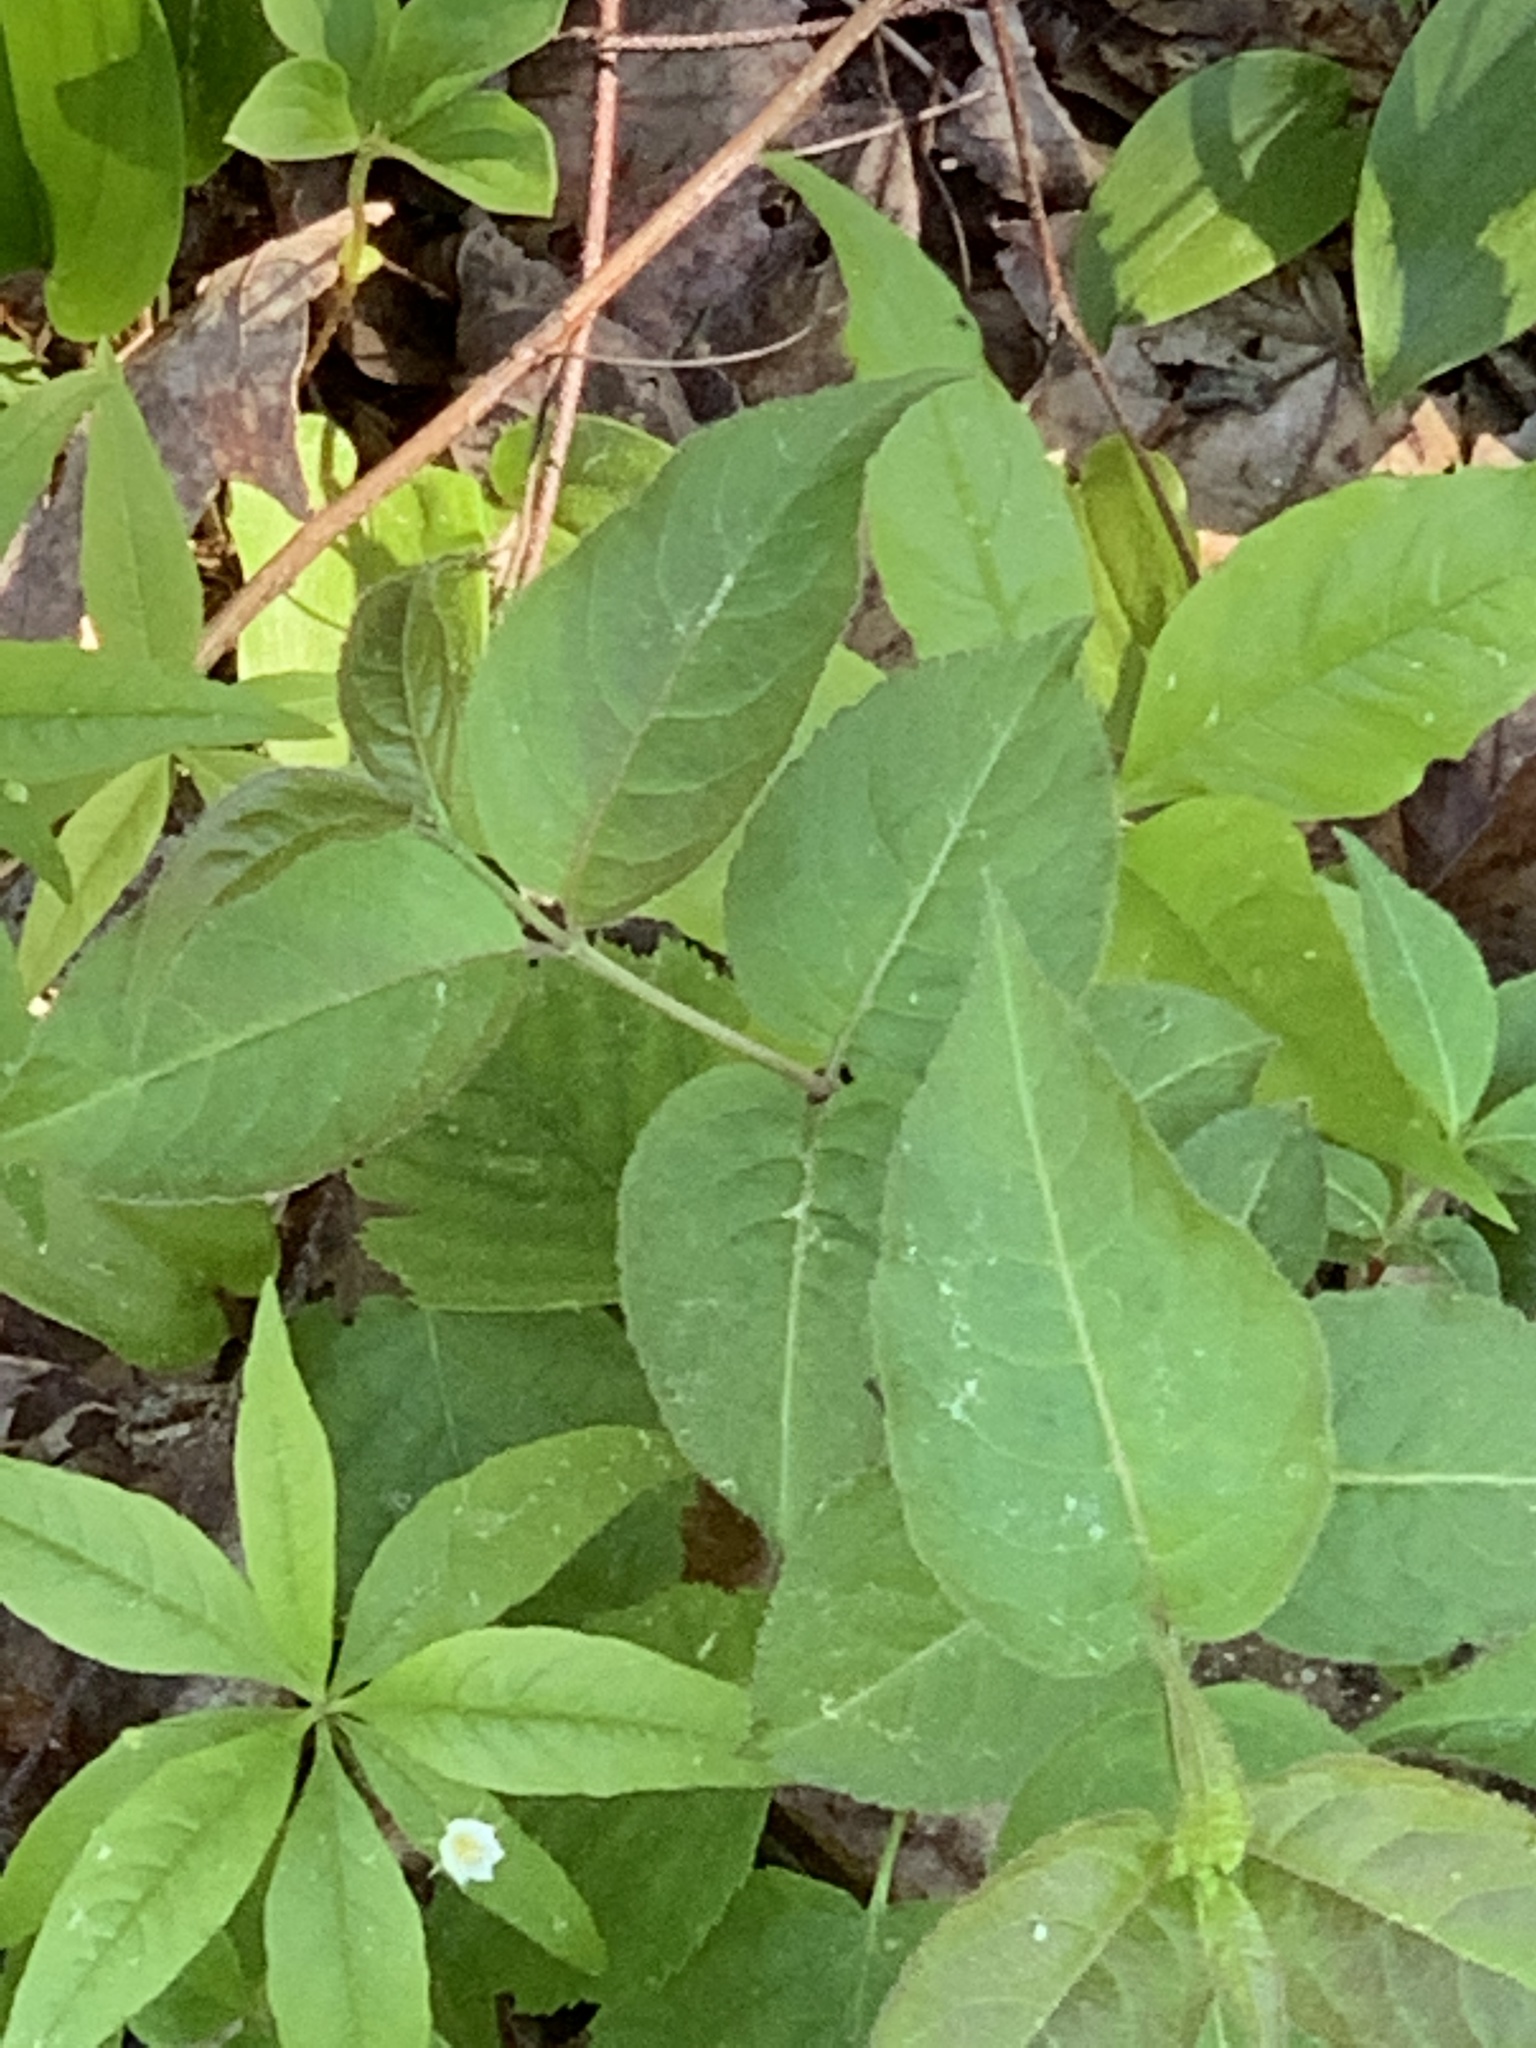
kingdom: Plantae
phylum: Tracheophyta
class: Magnoliopsida
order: Dipsacales
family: Caprifoliaceae
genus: Diervilla
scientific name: Diervilla lonicera
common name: Bush-honeysuckle
